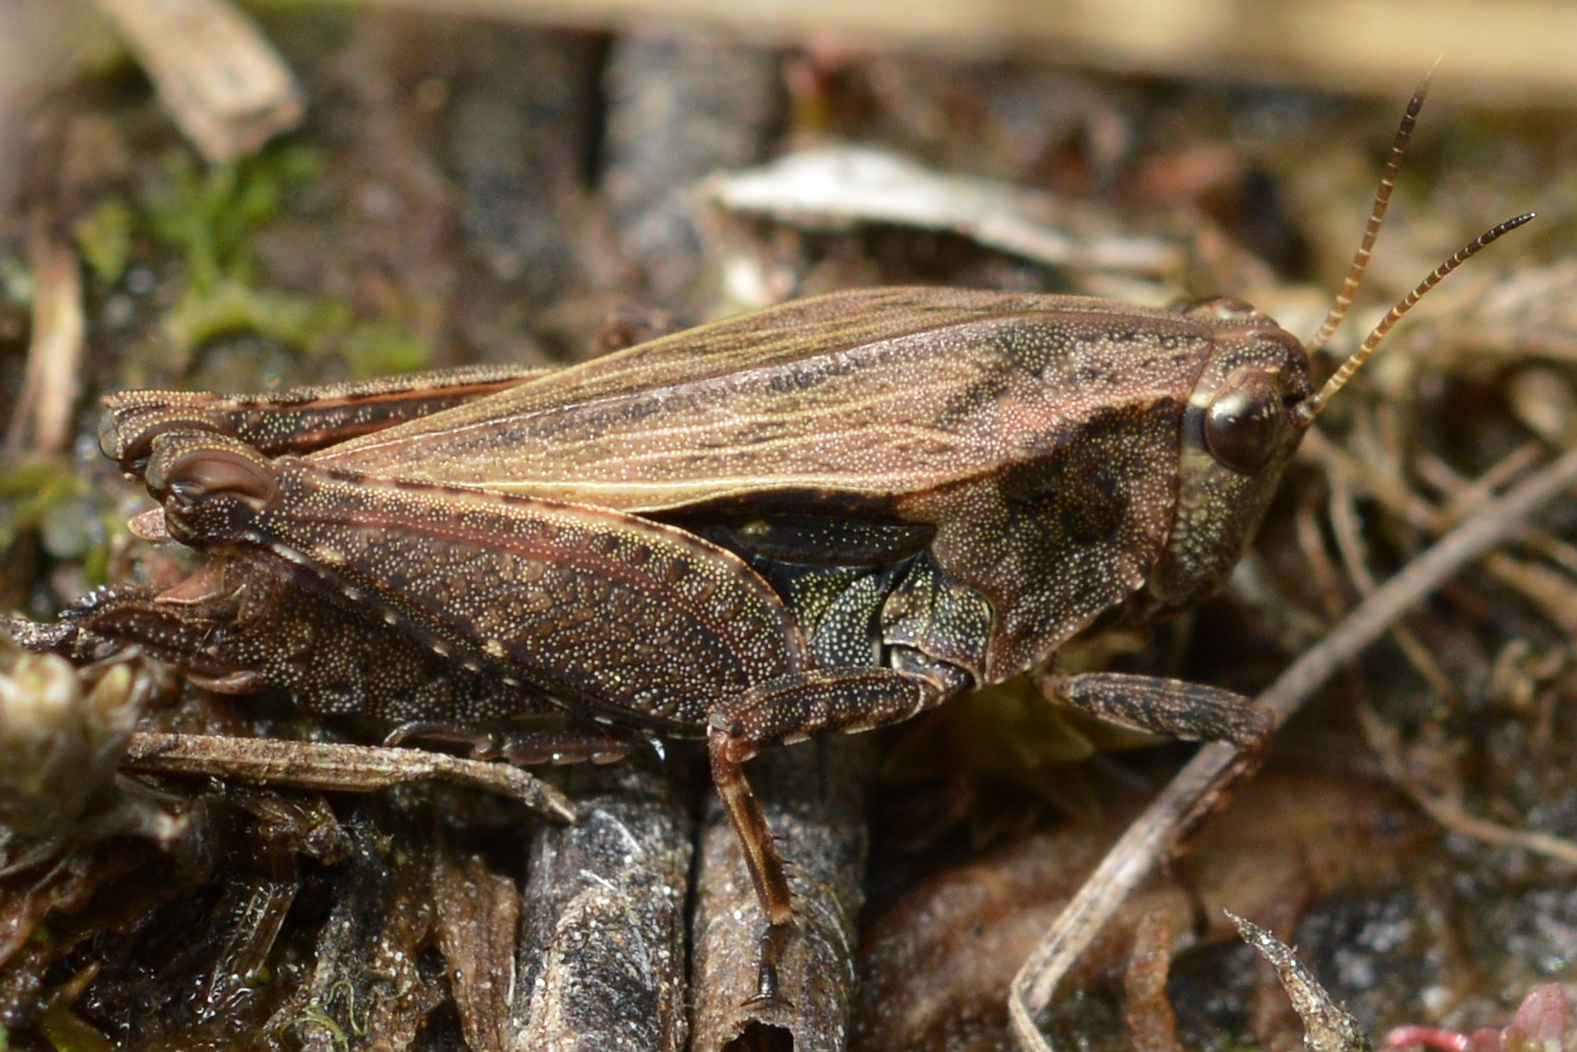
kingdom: Animalia
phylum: Arthropoda
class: Insecta
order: Orthoptera
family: Tetrigidae
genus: Tettigidea
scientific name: Tettigidea laterale
